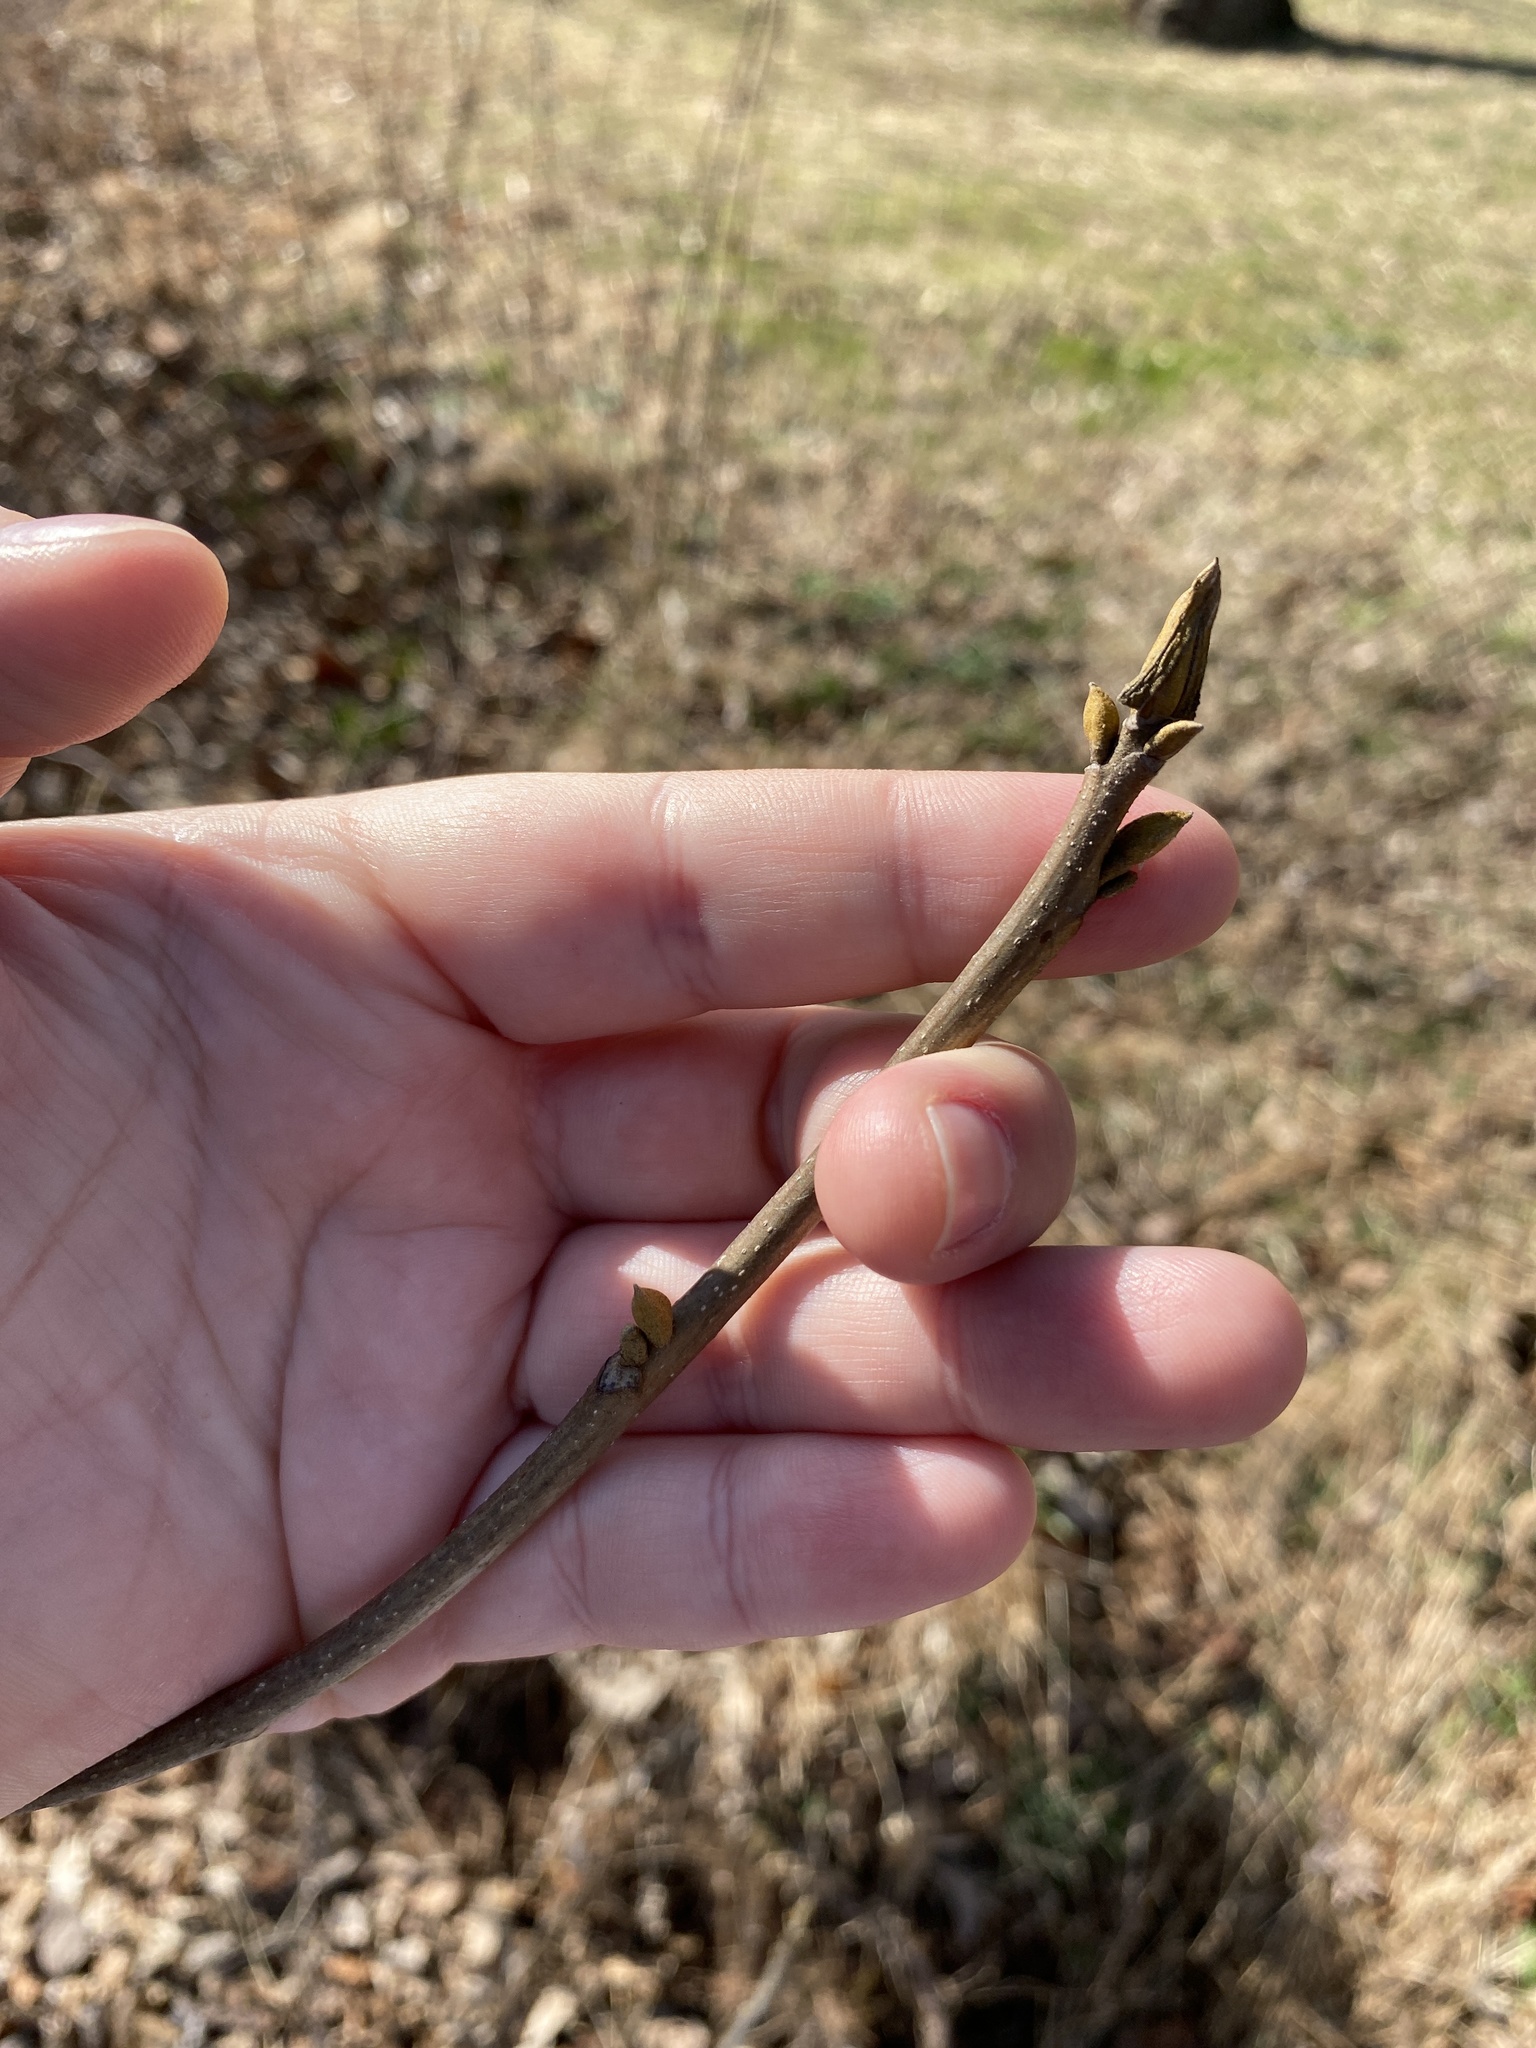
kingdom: Plantae
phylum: Tracheophyta
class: Magnoliopsida
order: Fagales
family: Juglandaceae
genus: Carya
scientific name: Carya cordiformis
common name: Bitternut hickory
